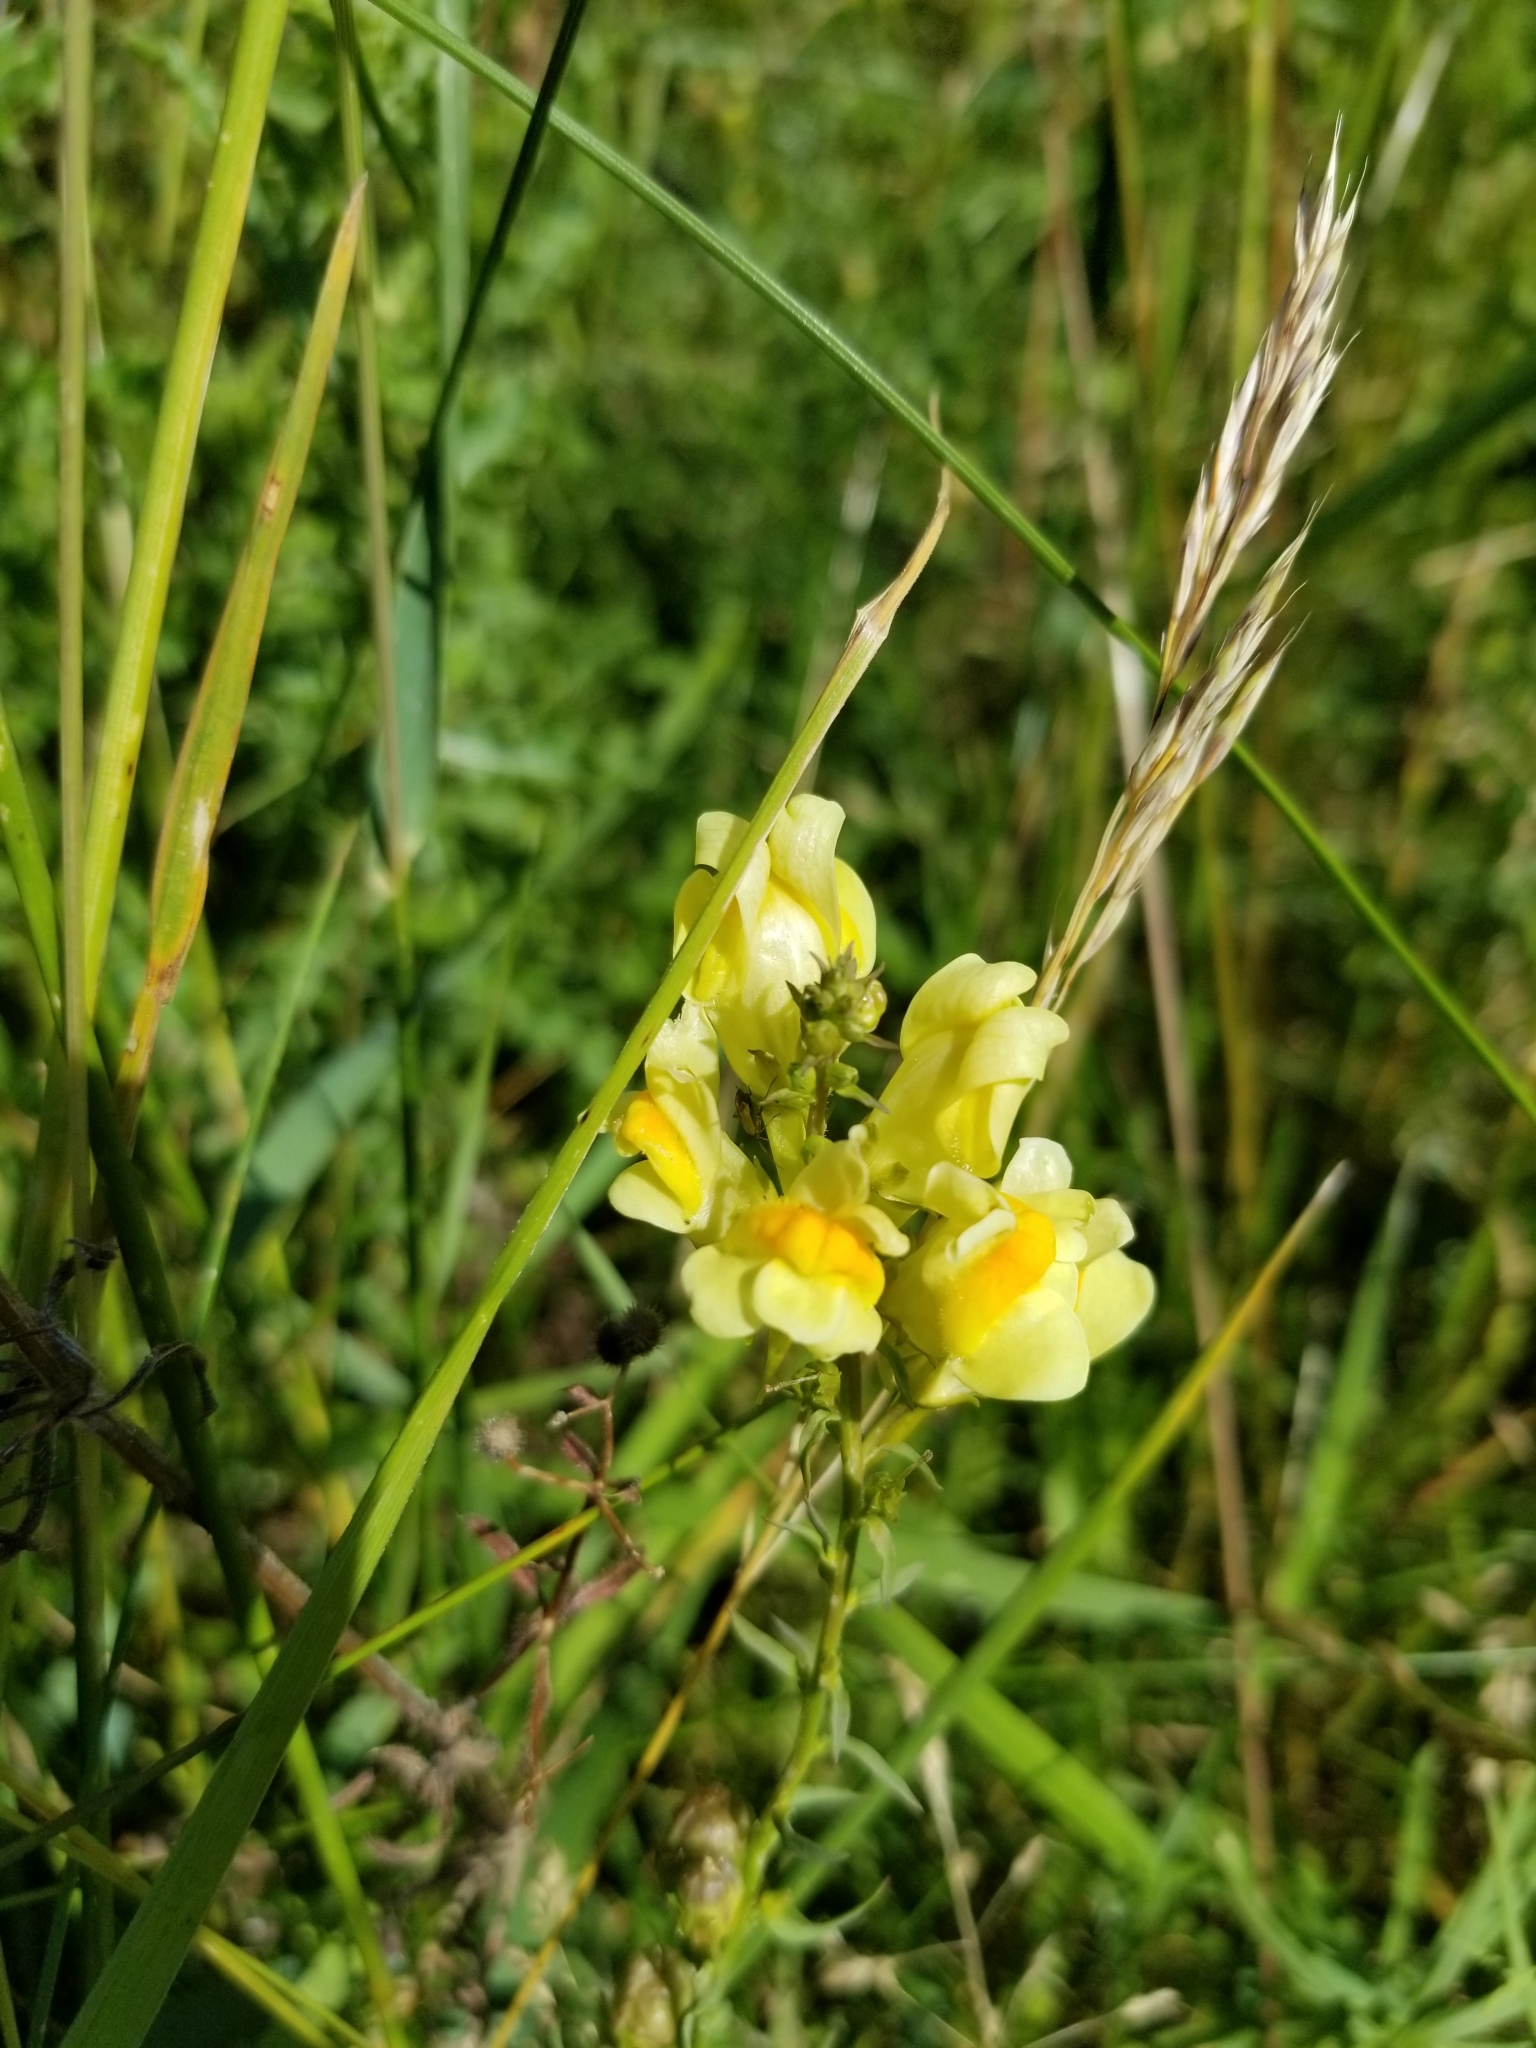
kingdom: Plantae
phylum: Tracheophyta
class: Magnoliopsida
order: Lamiales
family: Plantaginaceae
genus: Linaria
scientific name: Linaria vulgaris
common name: Butter and eggs
